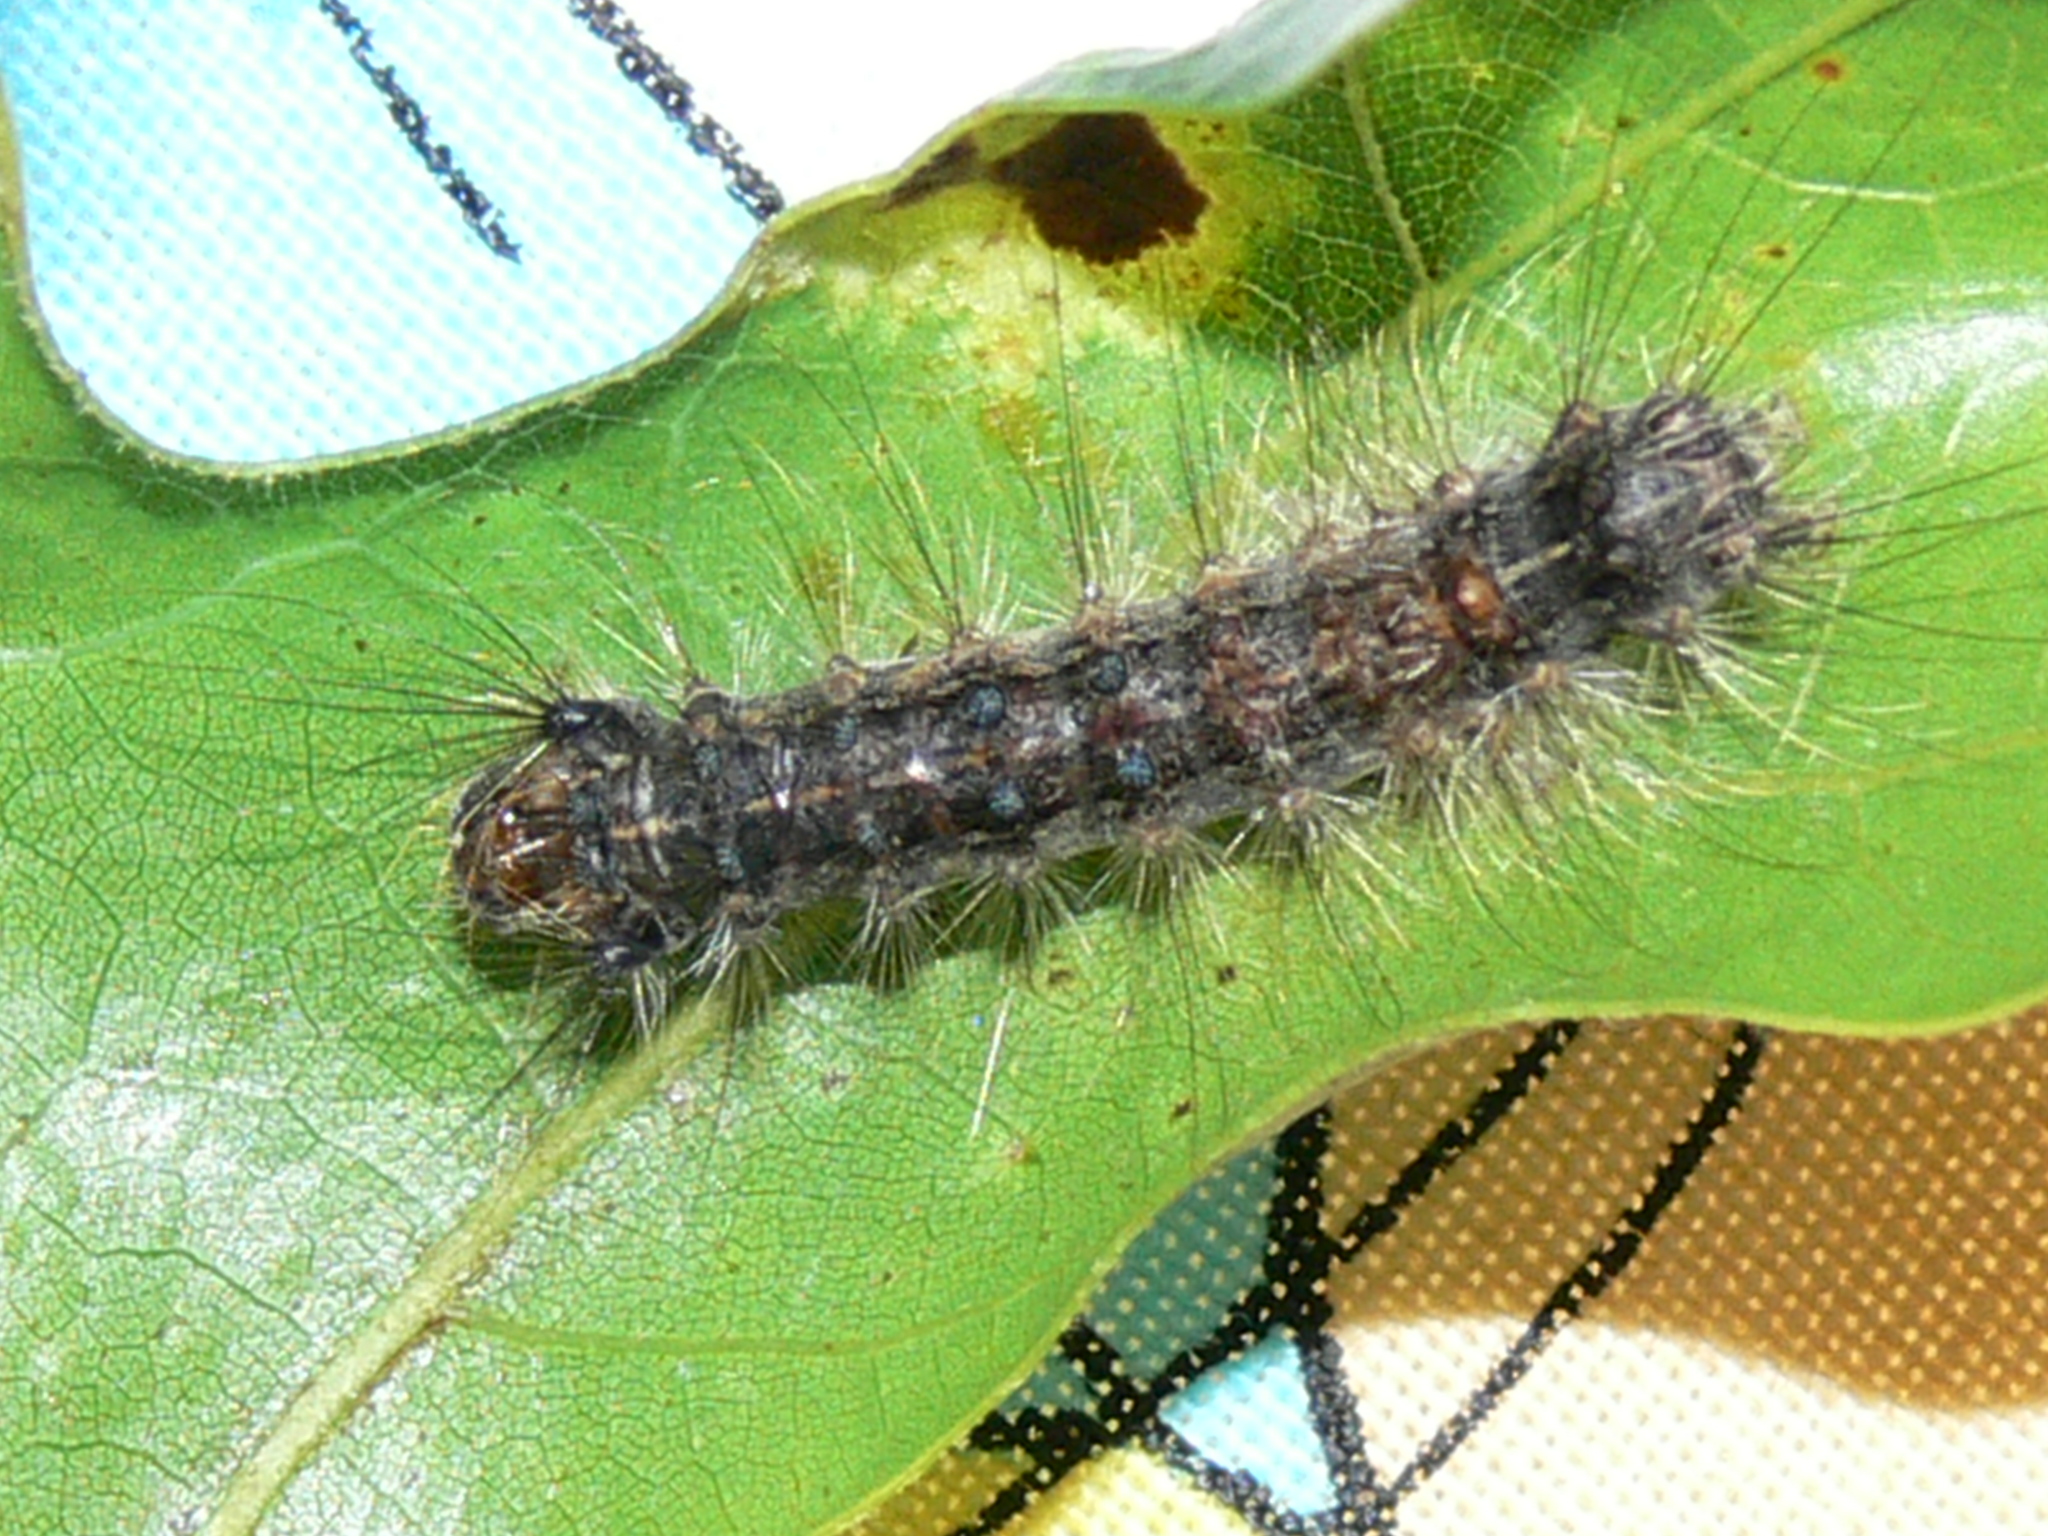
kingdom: Animalia
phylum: Arthropoda
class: Insecta
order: Lepidoptera
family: Erebidae
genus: Lymantria
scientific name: Lymantria dispar
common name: Gypsy moth
